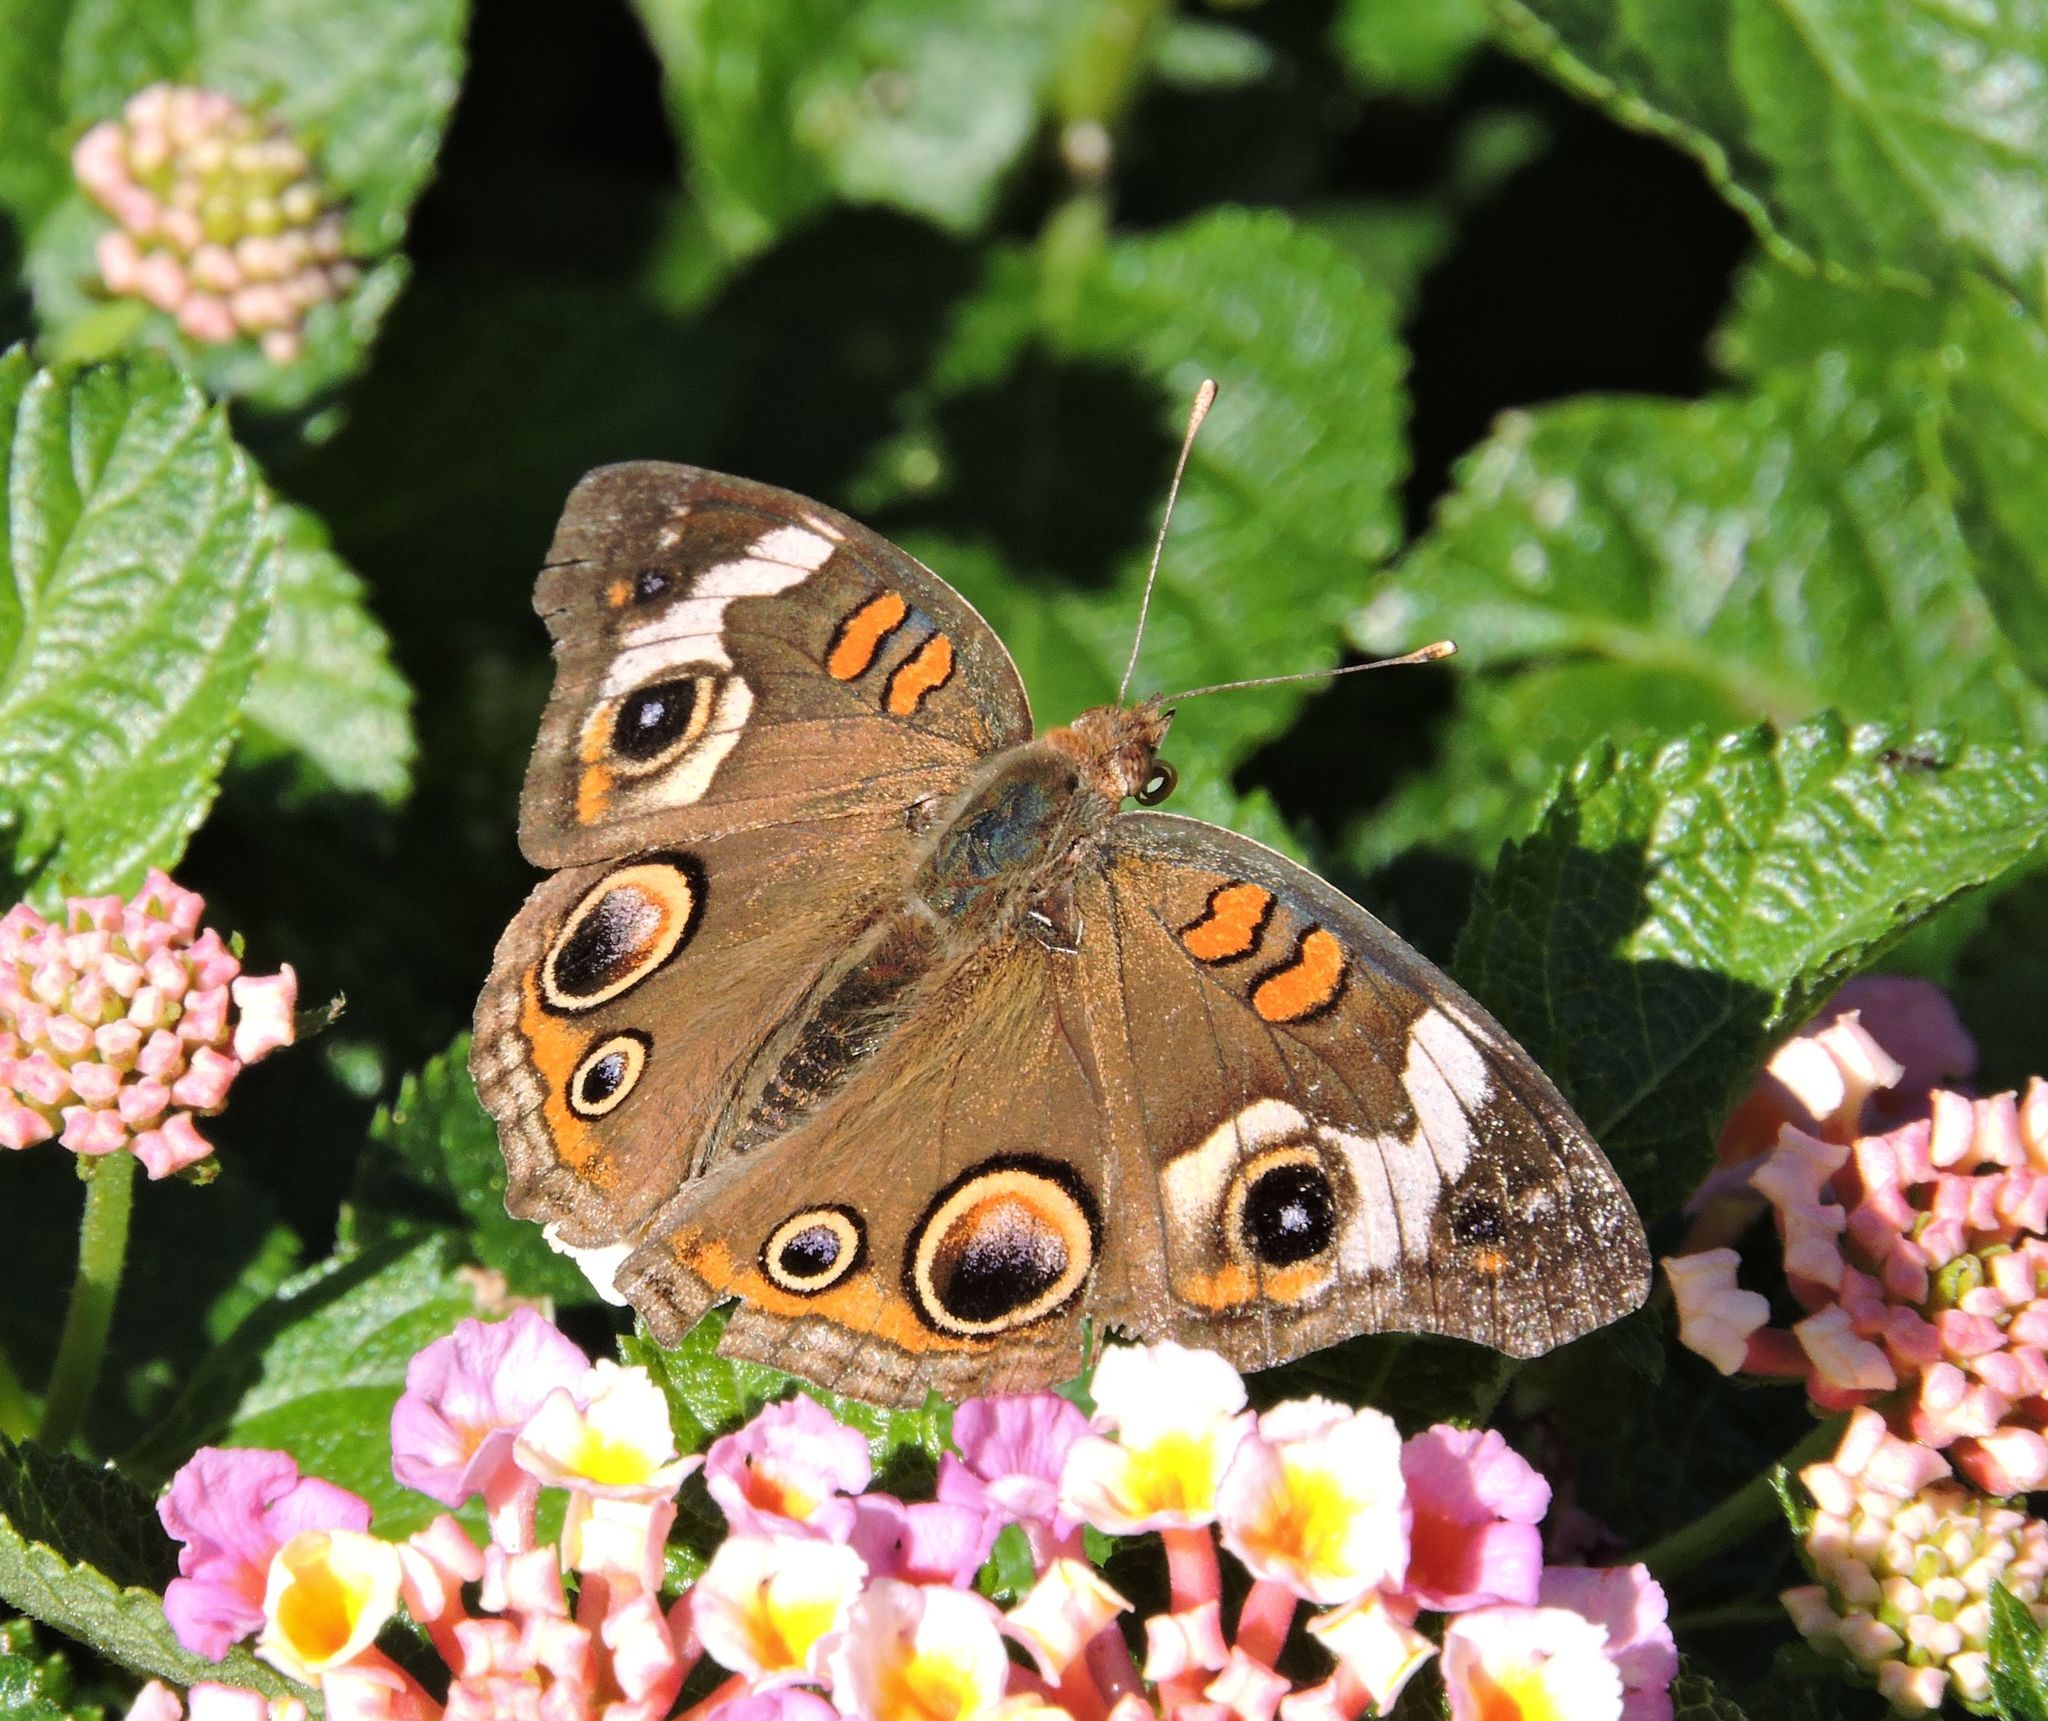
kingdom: Animalia
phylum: Arthropoda
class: Insecta
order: Lepidoptera
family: Nymphalidae
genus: Junonia
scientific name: Junonia coenia
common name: Common buckeye
